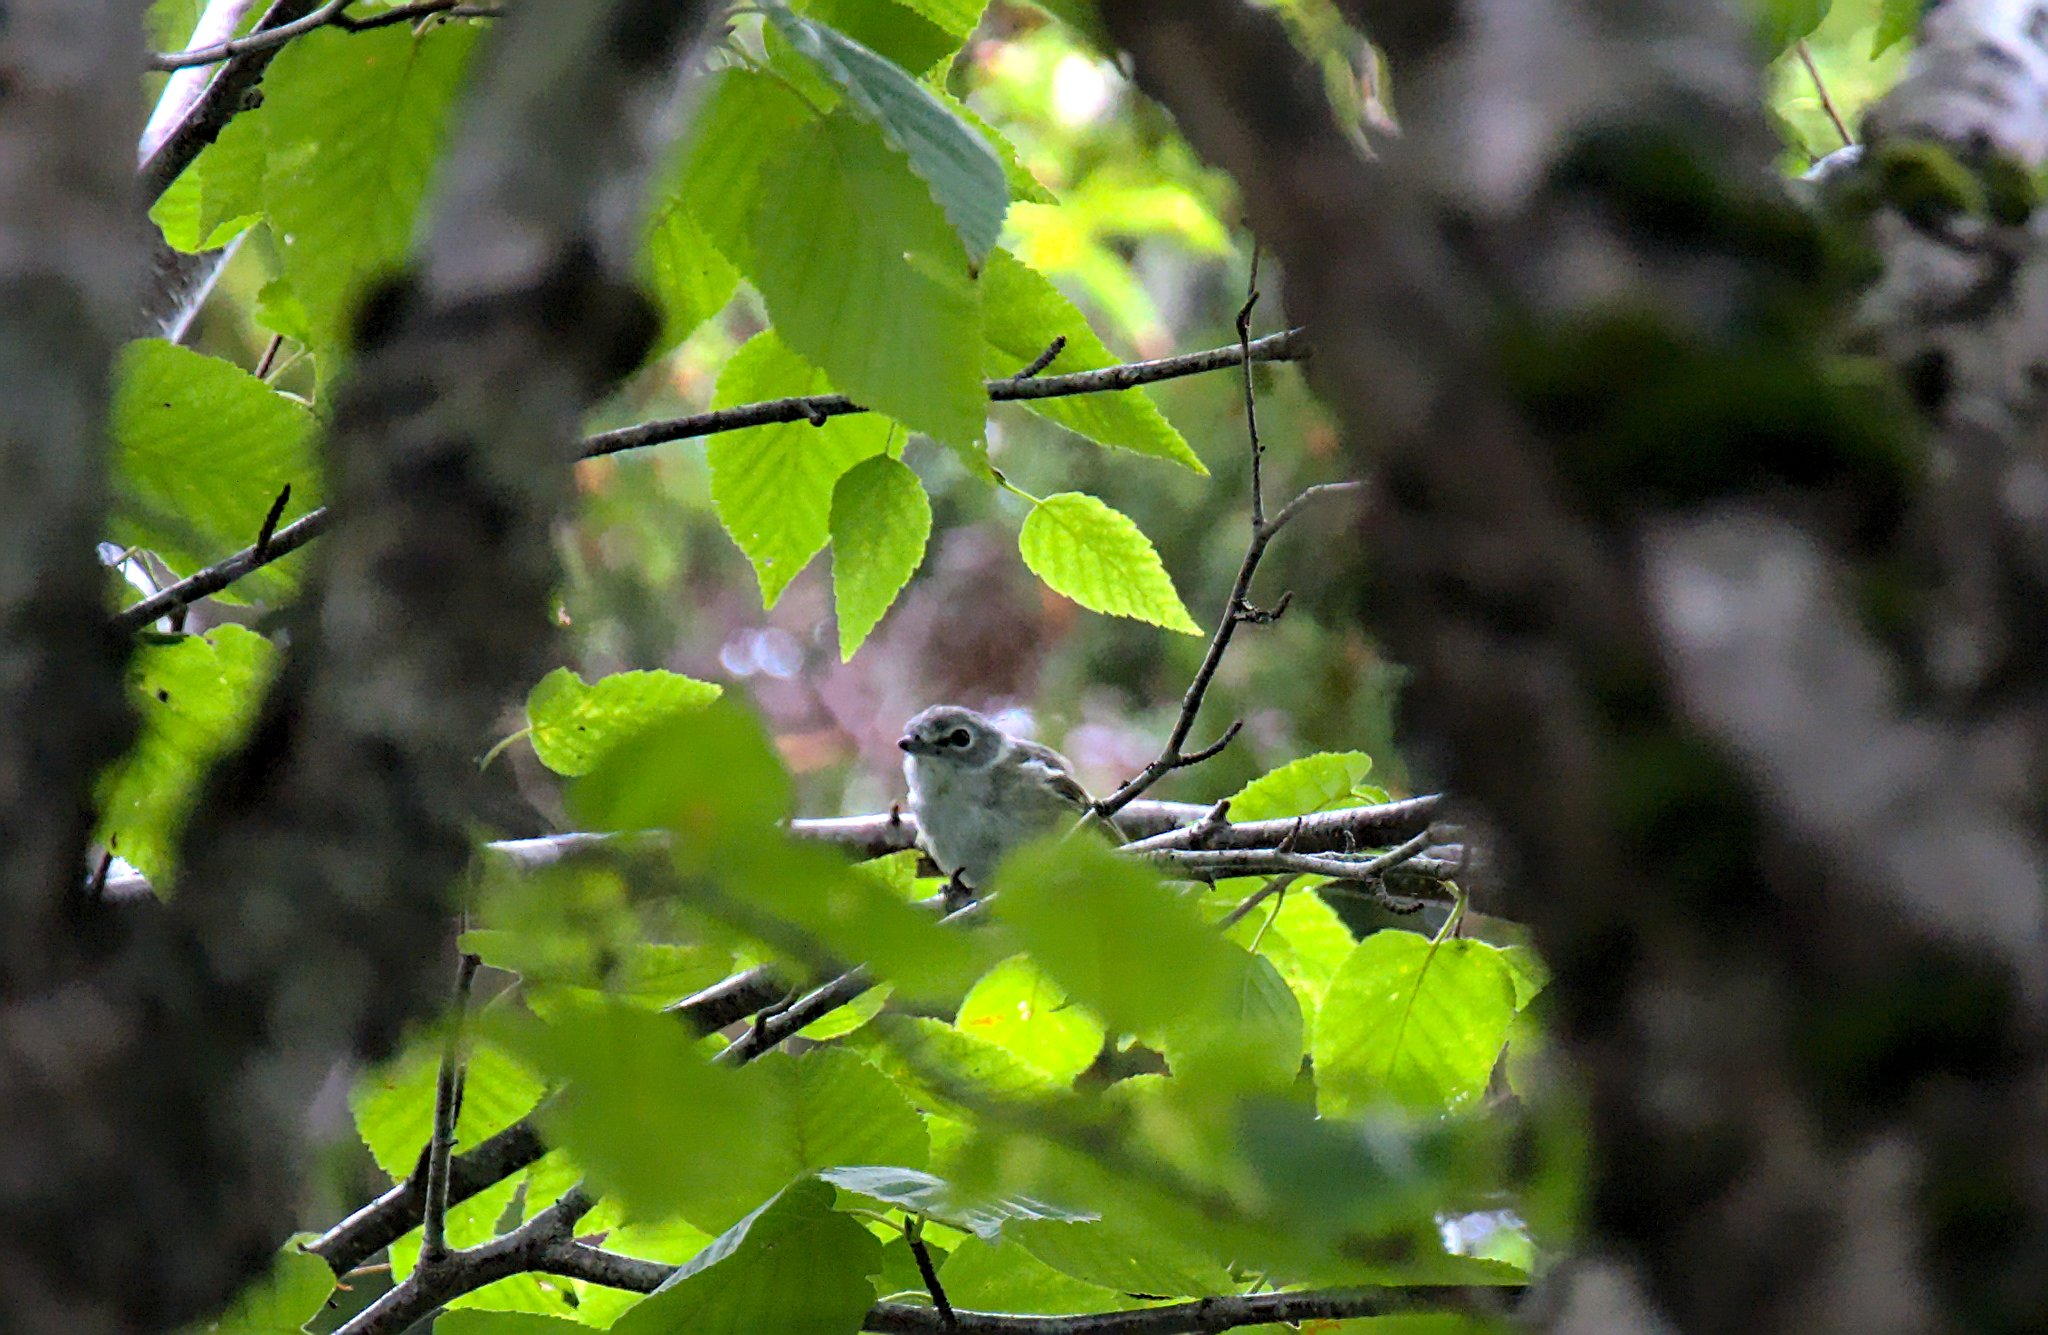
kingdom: Animalia
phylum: Chordata
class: Aves
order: Passeriformes
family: Vireonidae
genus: Vireo
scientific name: Vireo solitarius
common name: Blue-headed vireo
